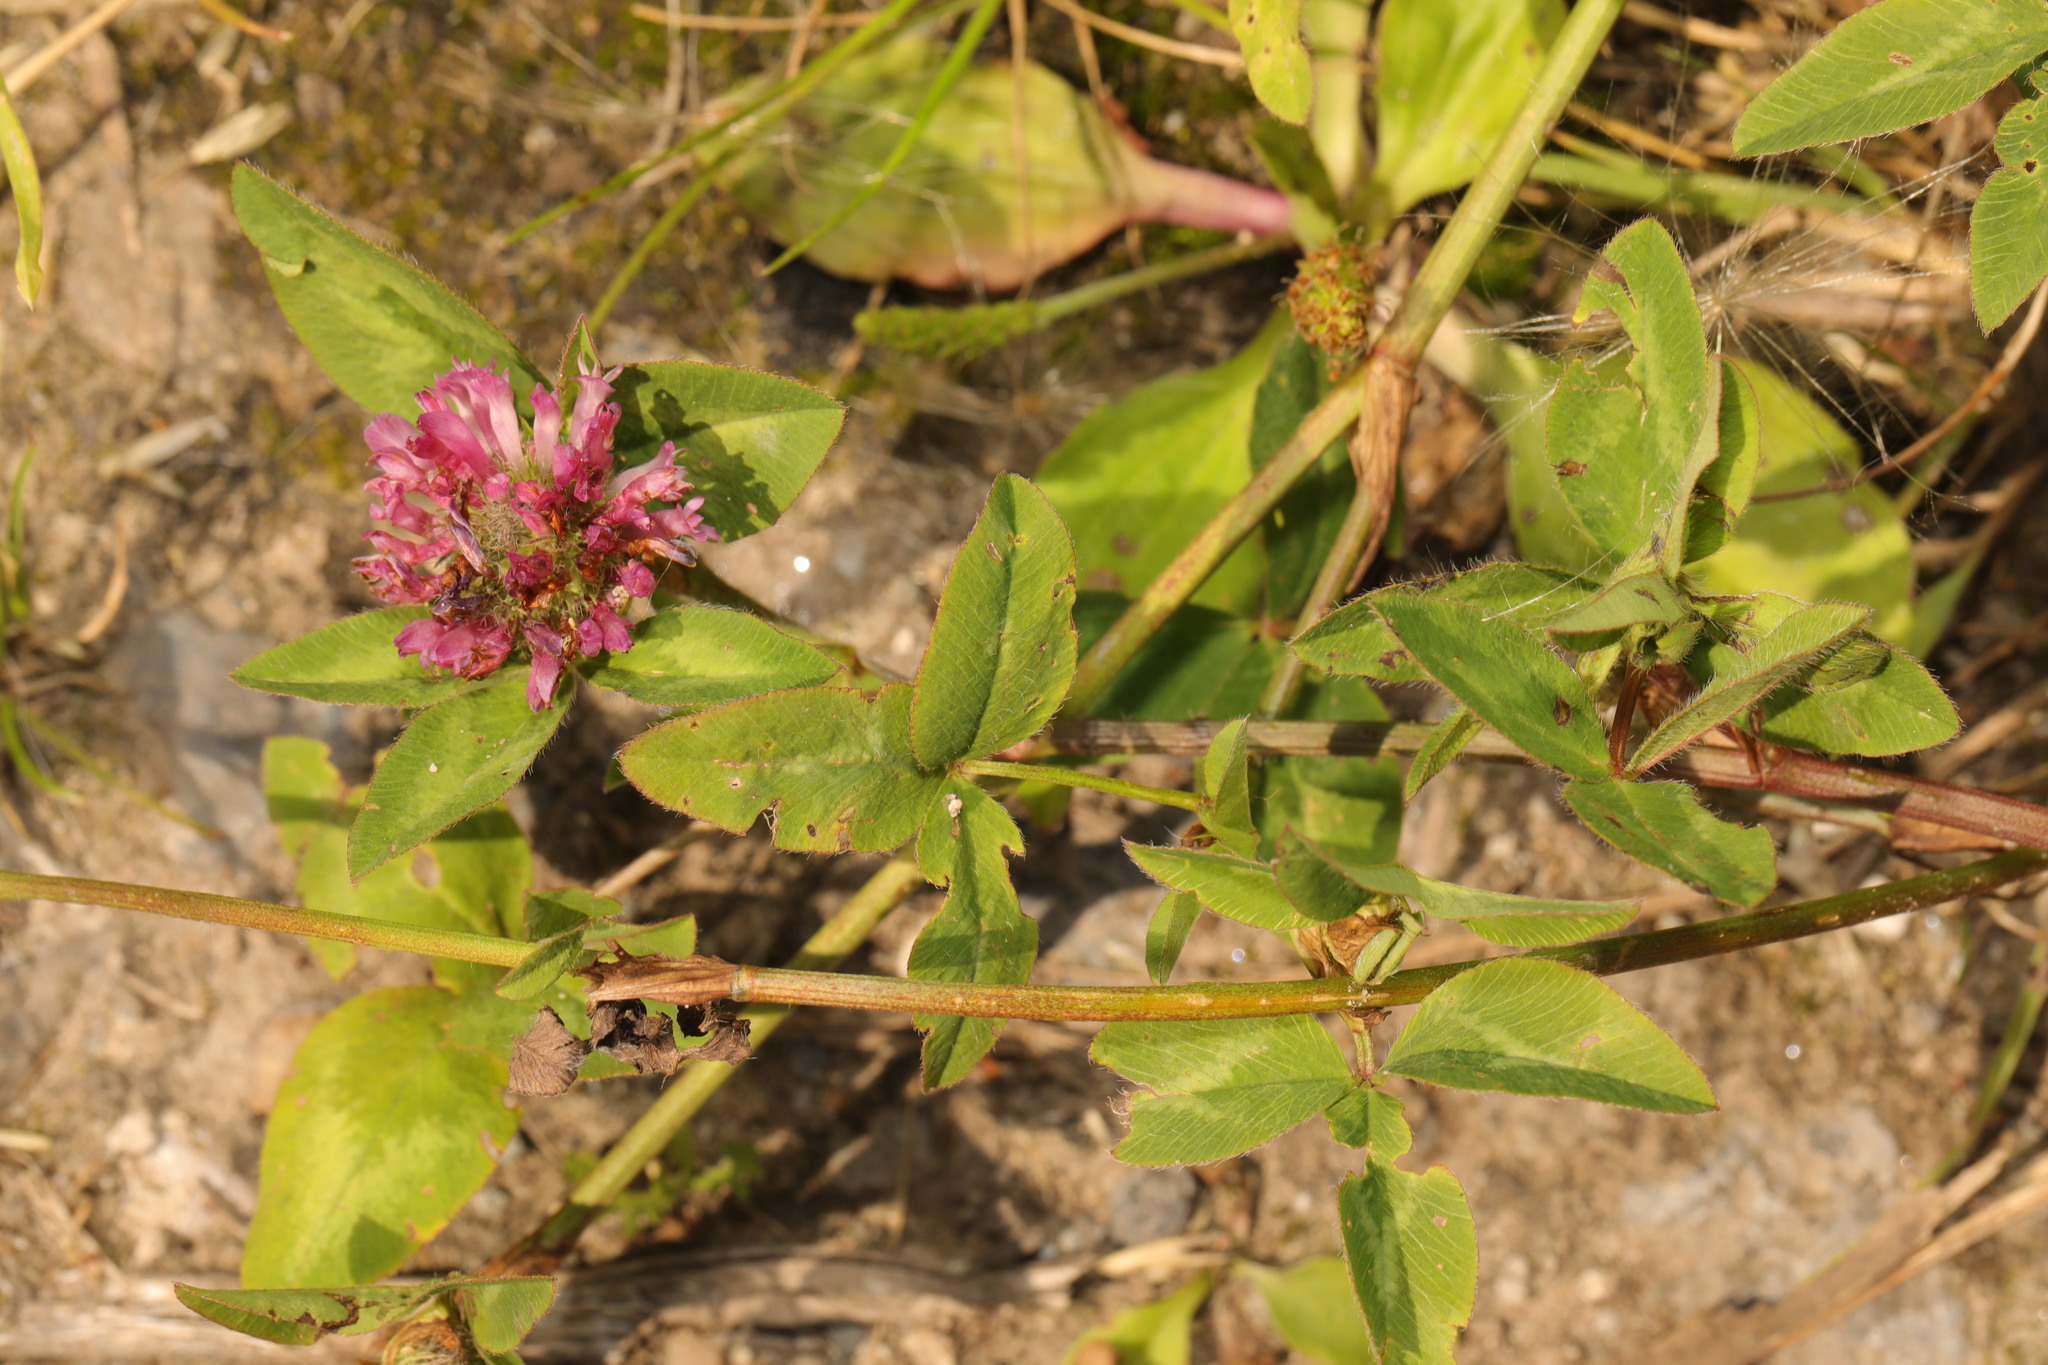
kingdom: Plantae
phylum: Tracheophyta
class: Magnoliopsida
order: Fabales
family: Fabaceae
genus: Trifolium
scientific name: Trifolium pratense
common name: Red clover
